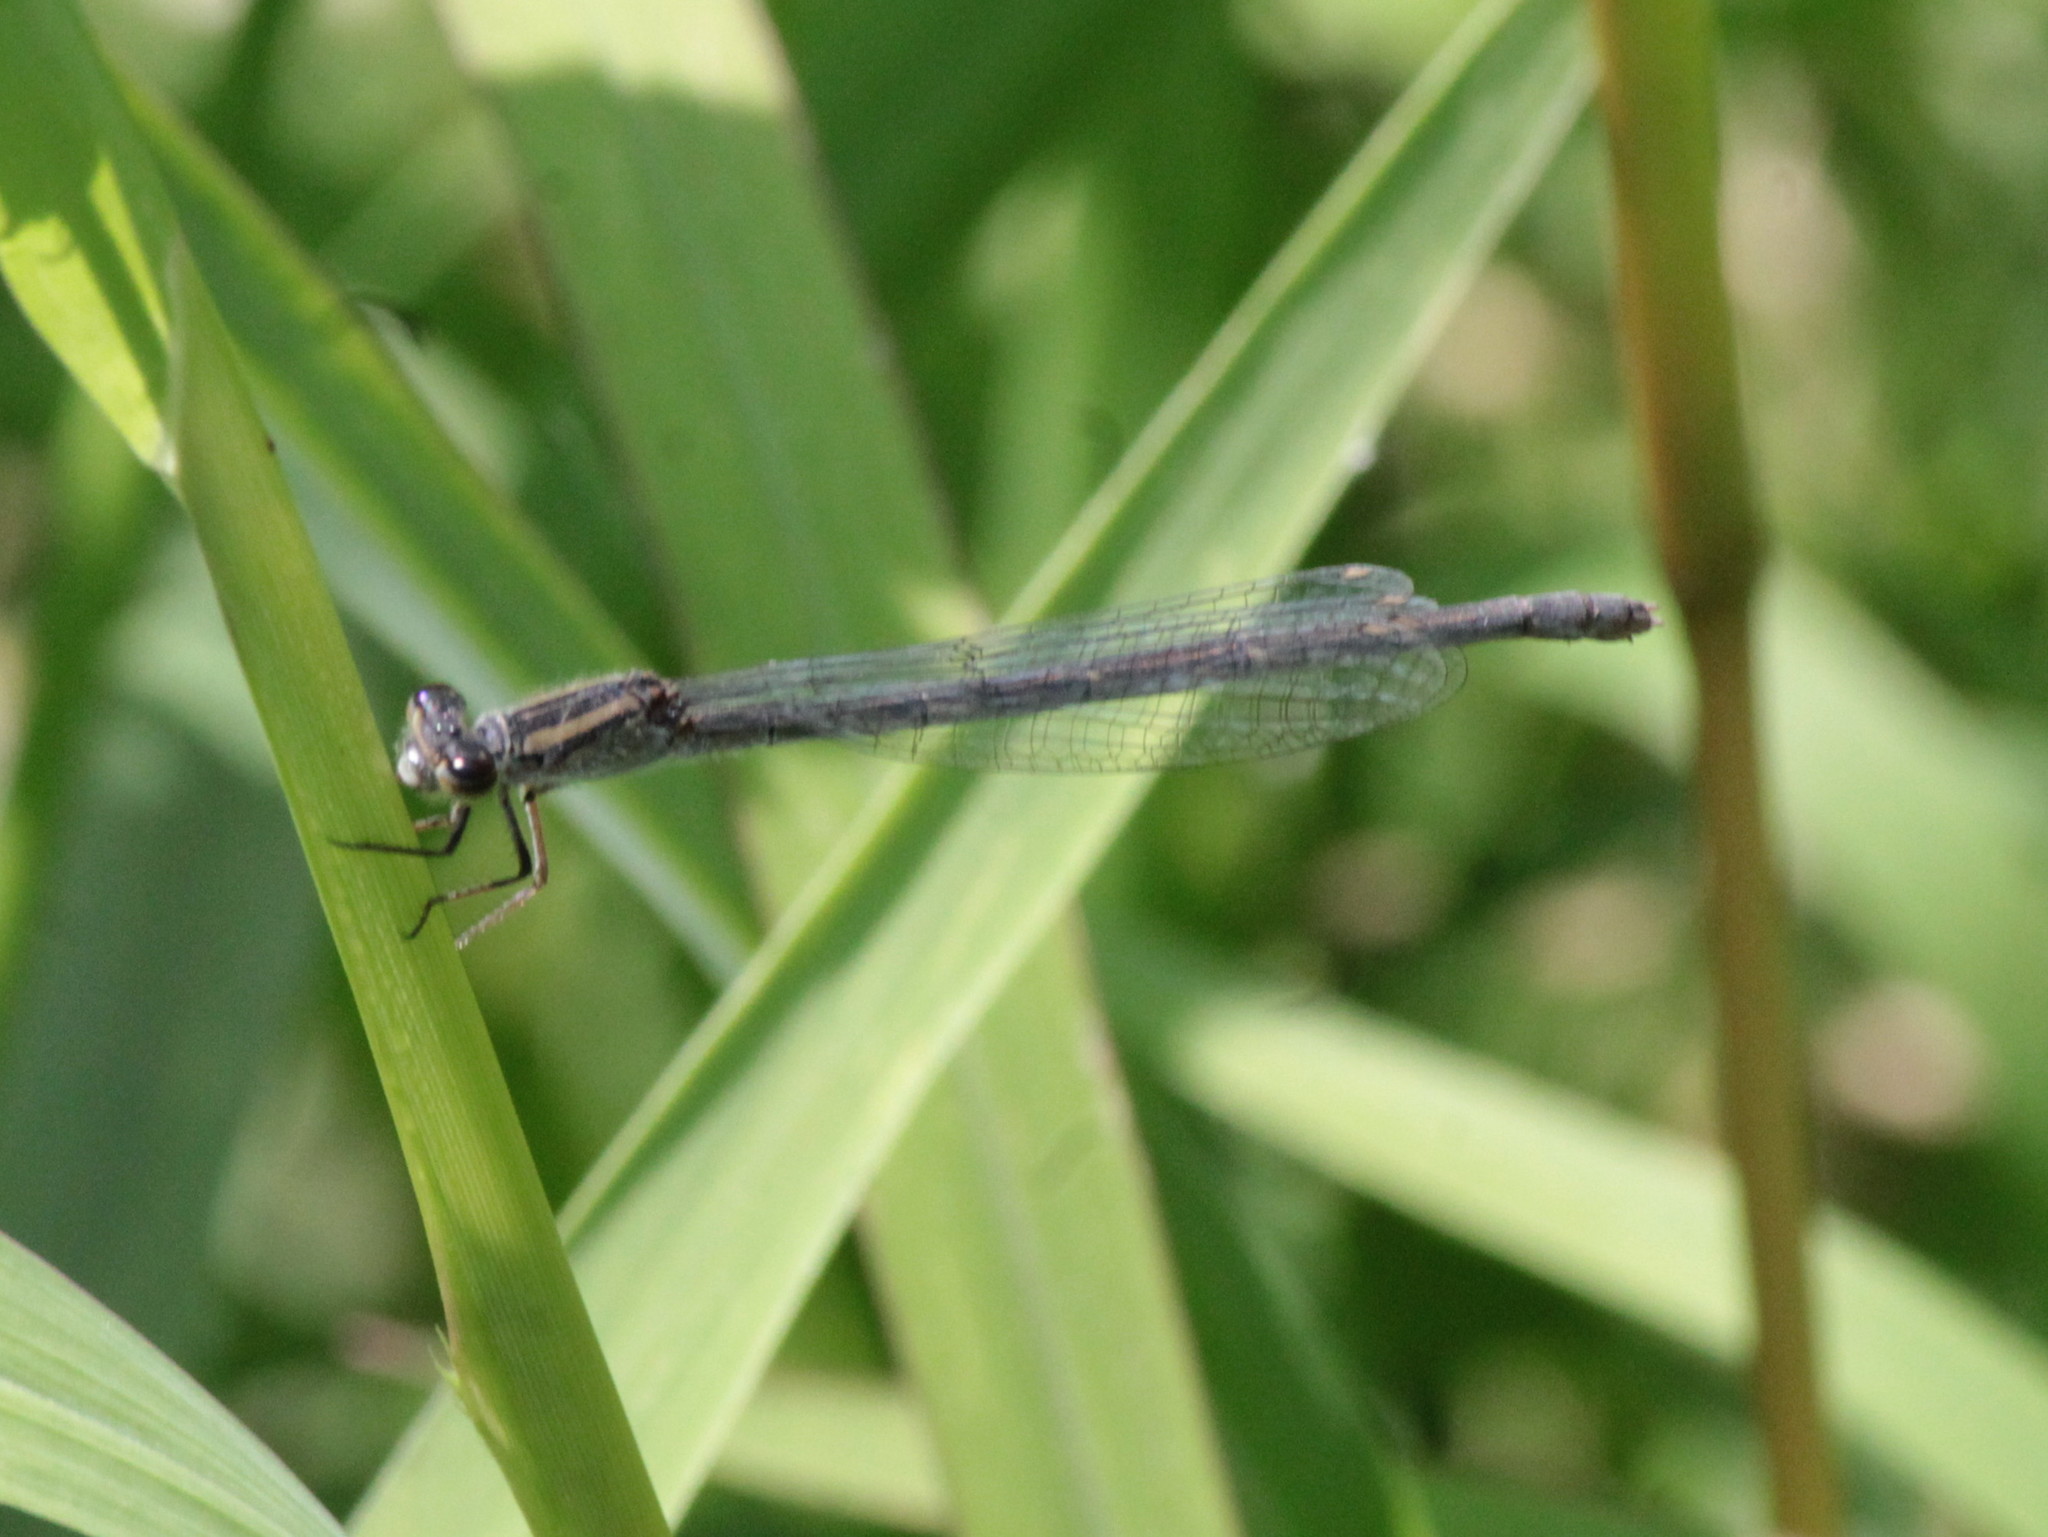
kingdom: Animalia
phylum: Arthropoda
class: Insecta
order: Odonata
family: Coenagrionidae
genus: Ischnura
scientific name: Ischnura verticalis
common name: Eastern forktail
